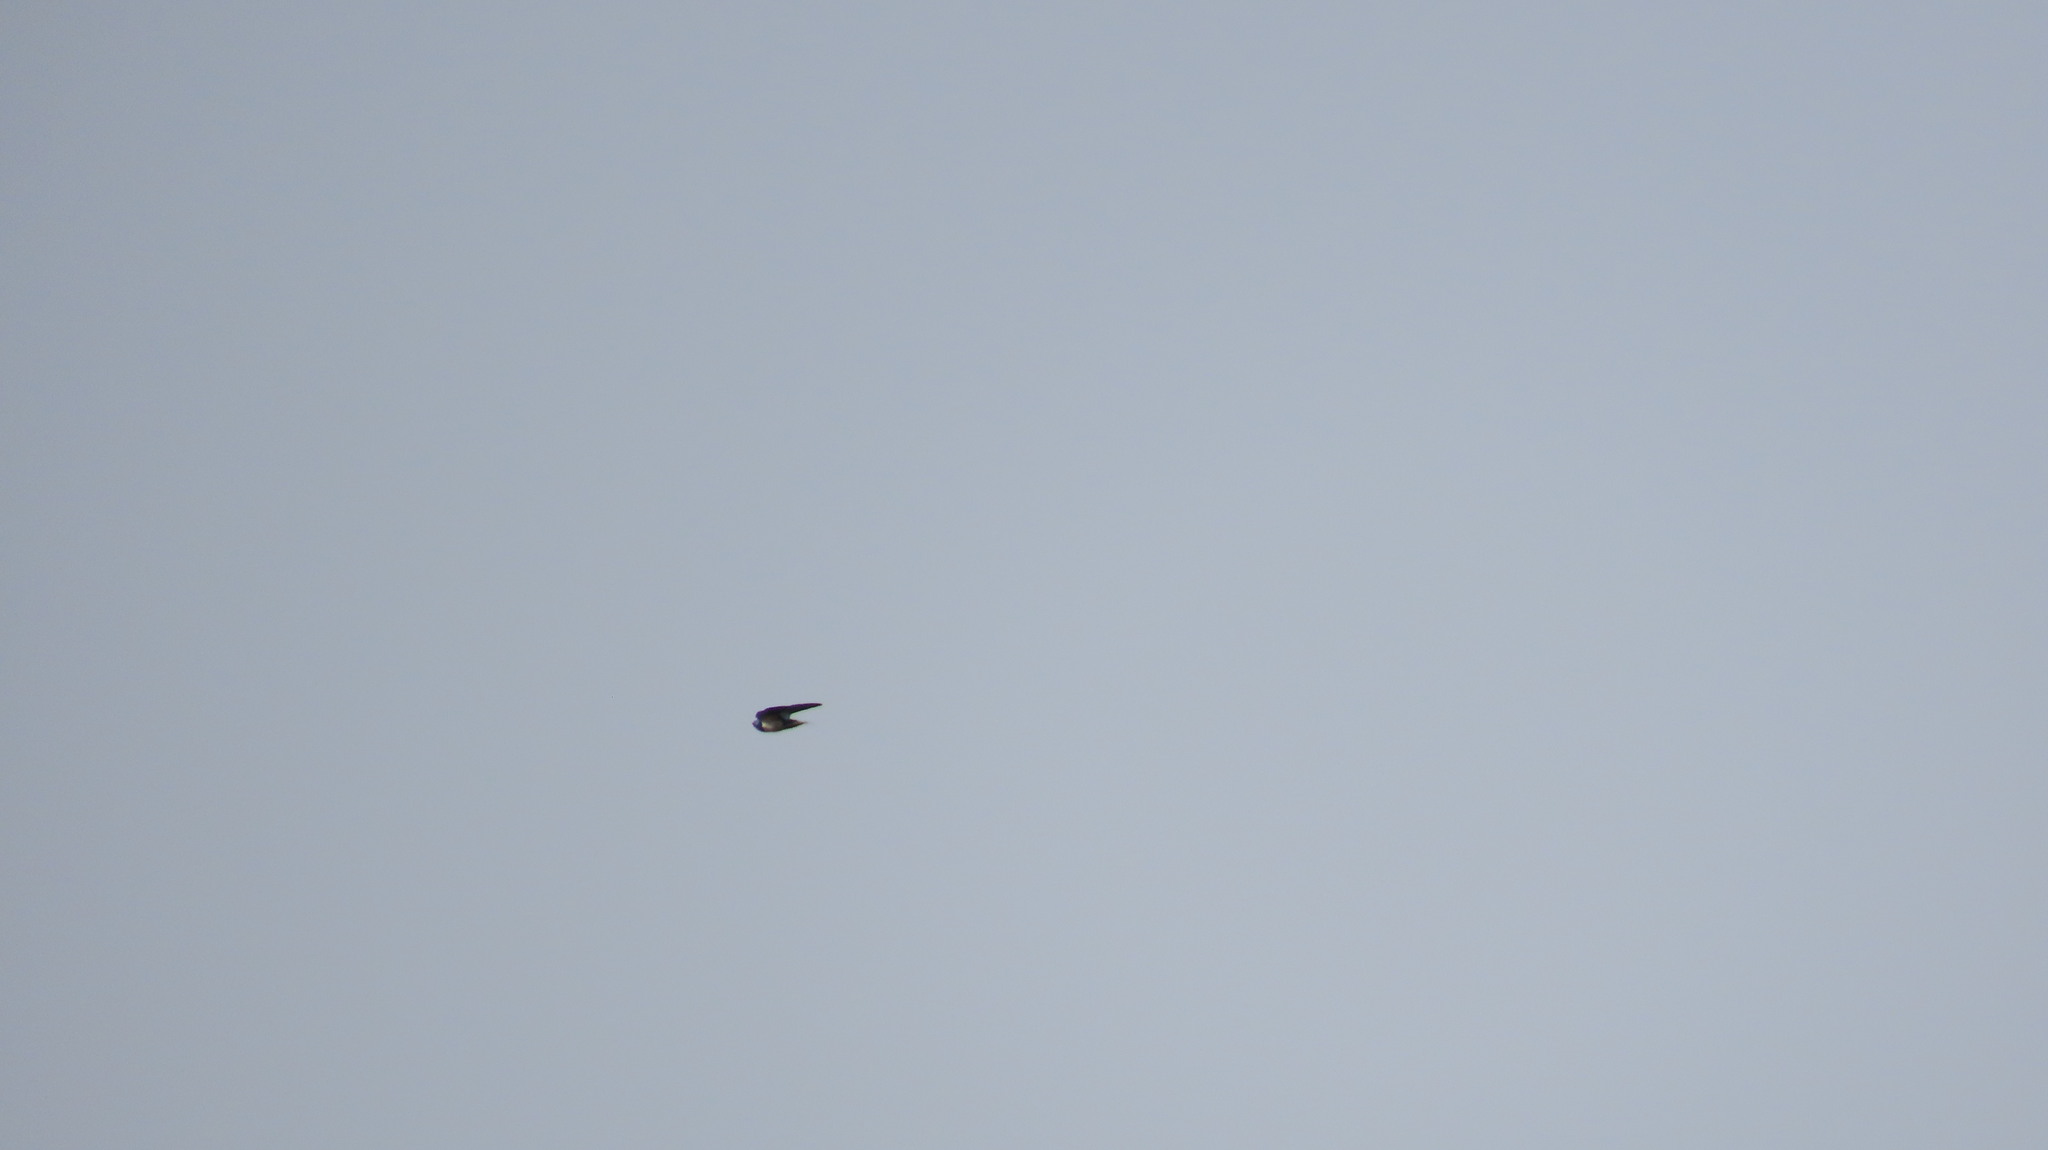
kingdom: Animalia
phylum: Chordata
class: Aves
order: Passeriformes
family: Hirundinidae
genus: Hirundo
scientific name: Hirundo rustica
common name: Barn swallow
